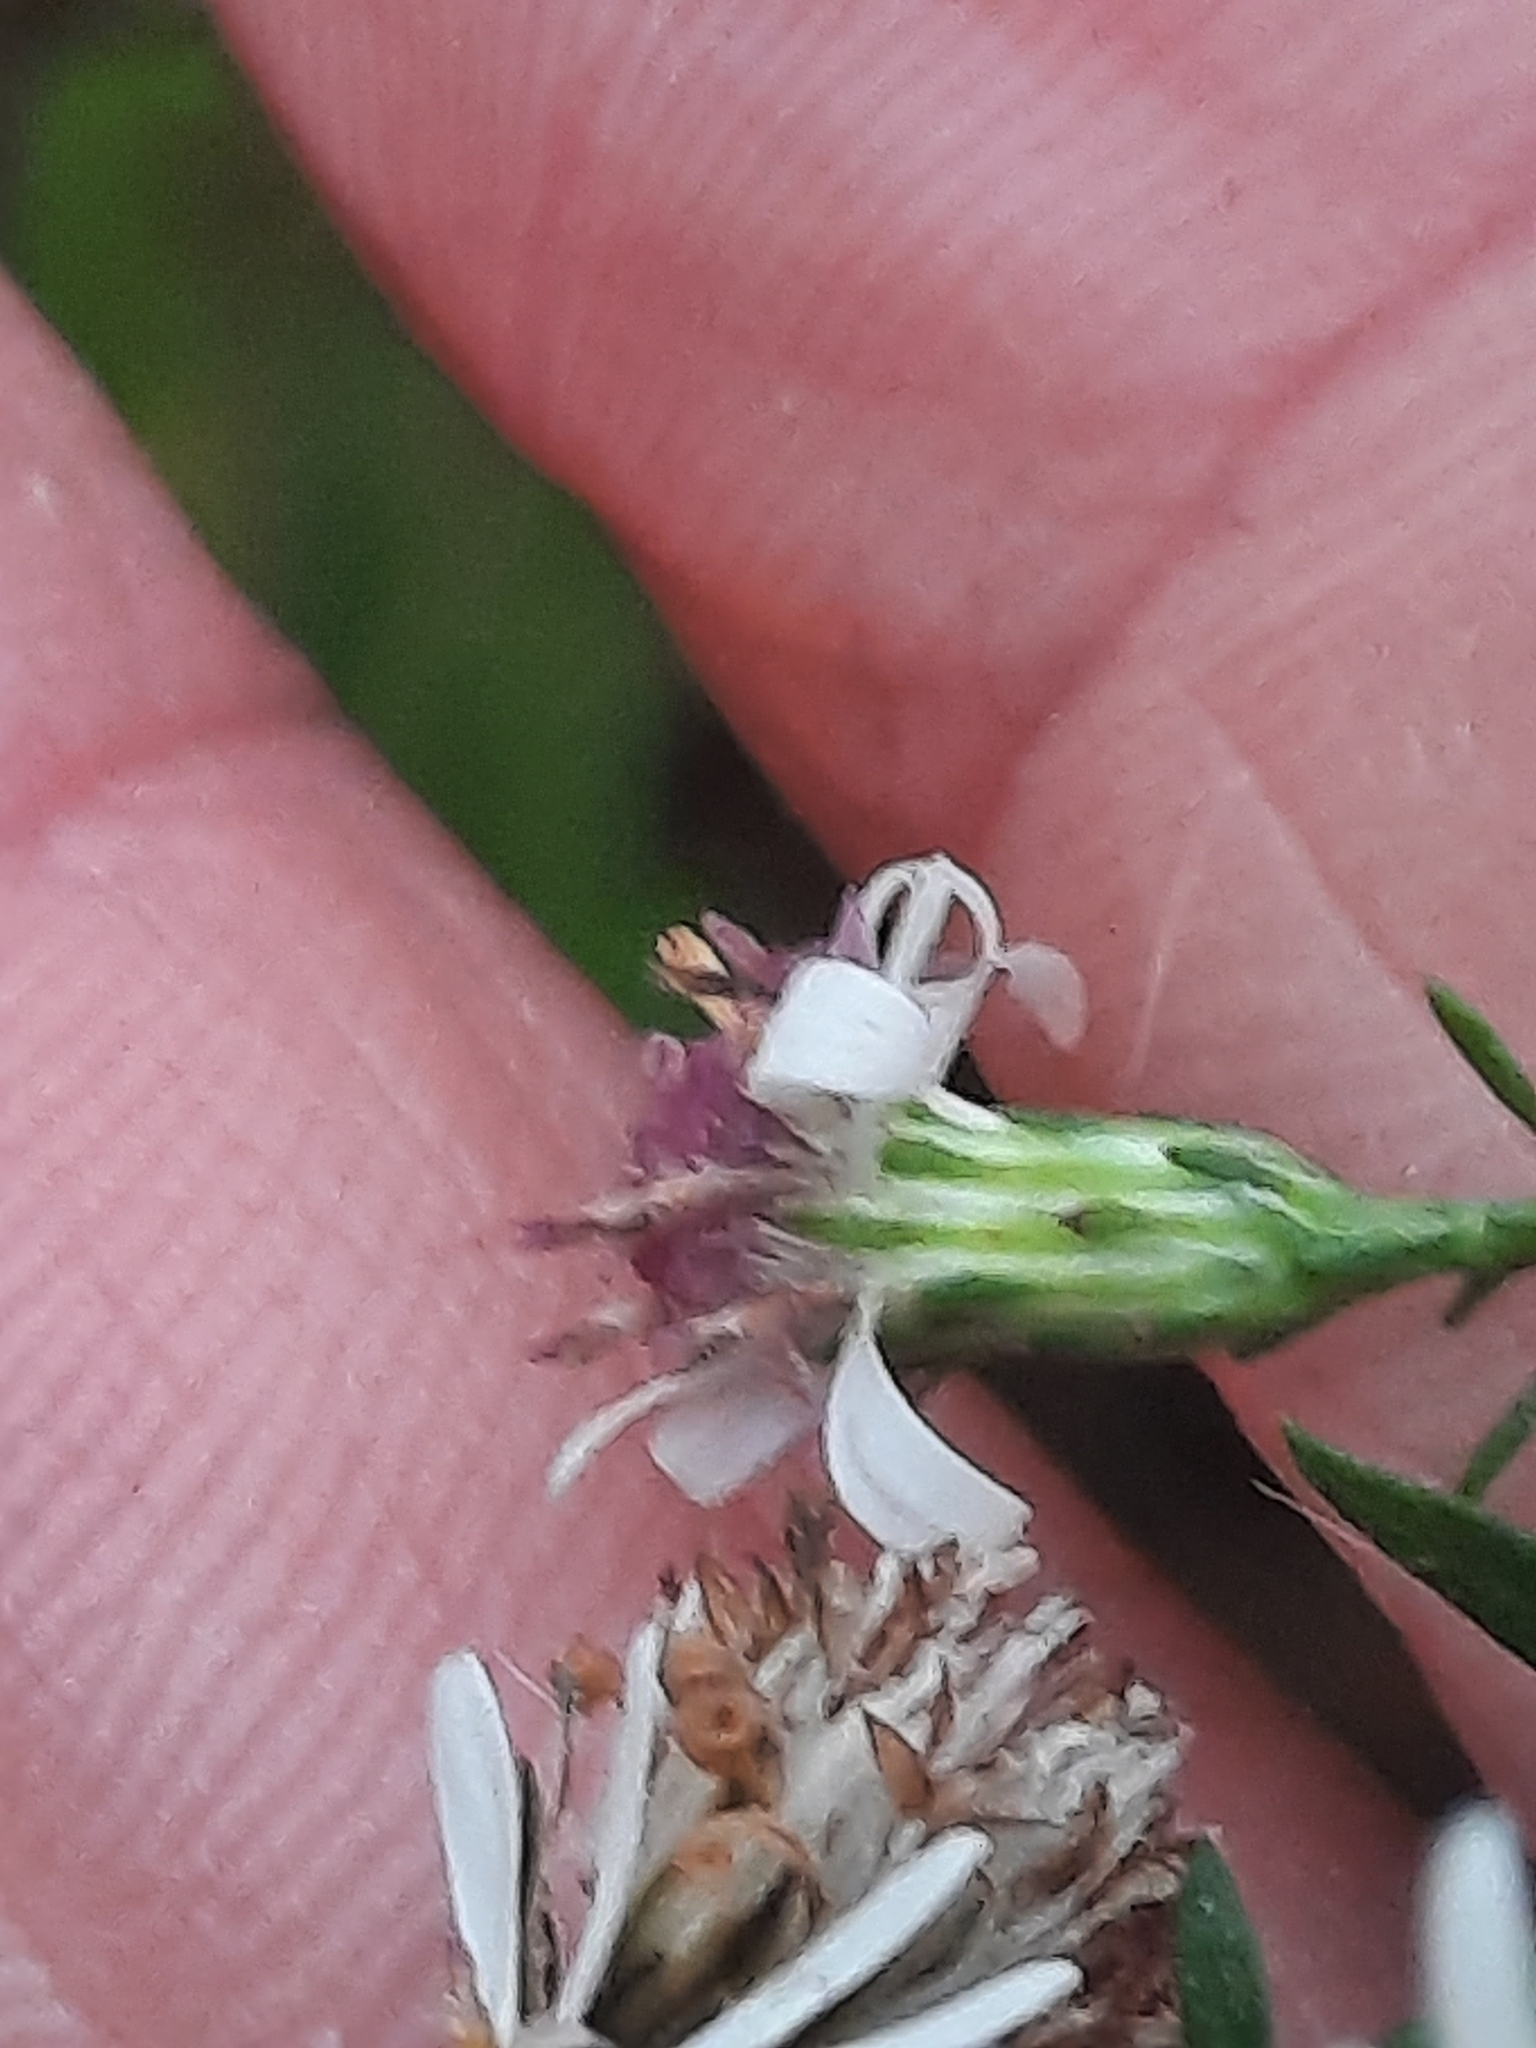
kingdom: Plantae
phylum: Tracheophyta
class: Magnoliopsida
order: Asterales
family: Asteraceae
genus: Symphyotrichum
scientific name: Symphyotrichum lateriflorum
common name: Calico aster
